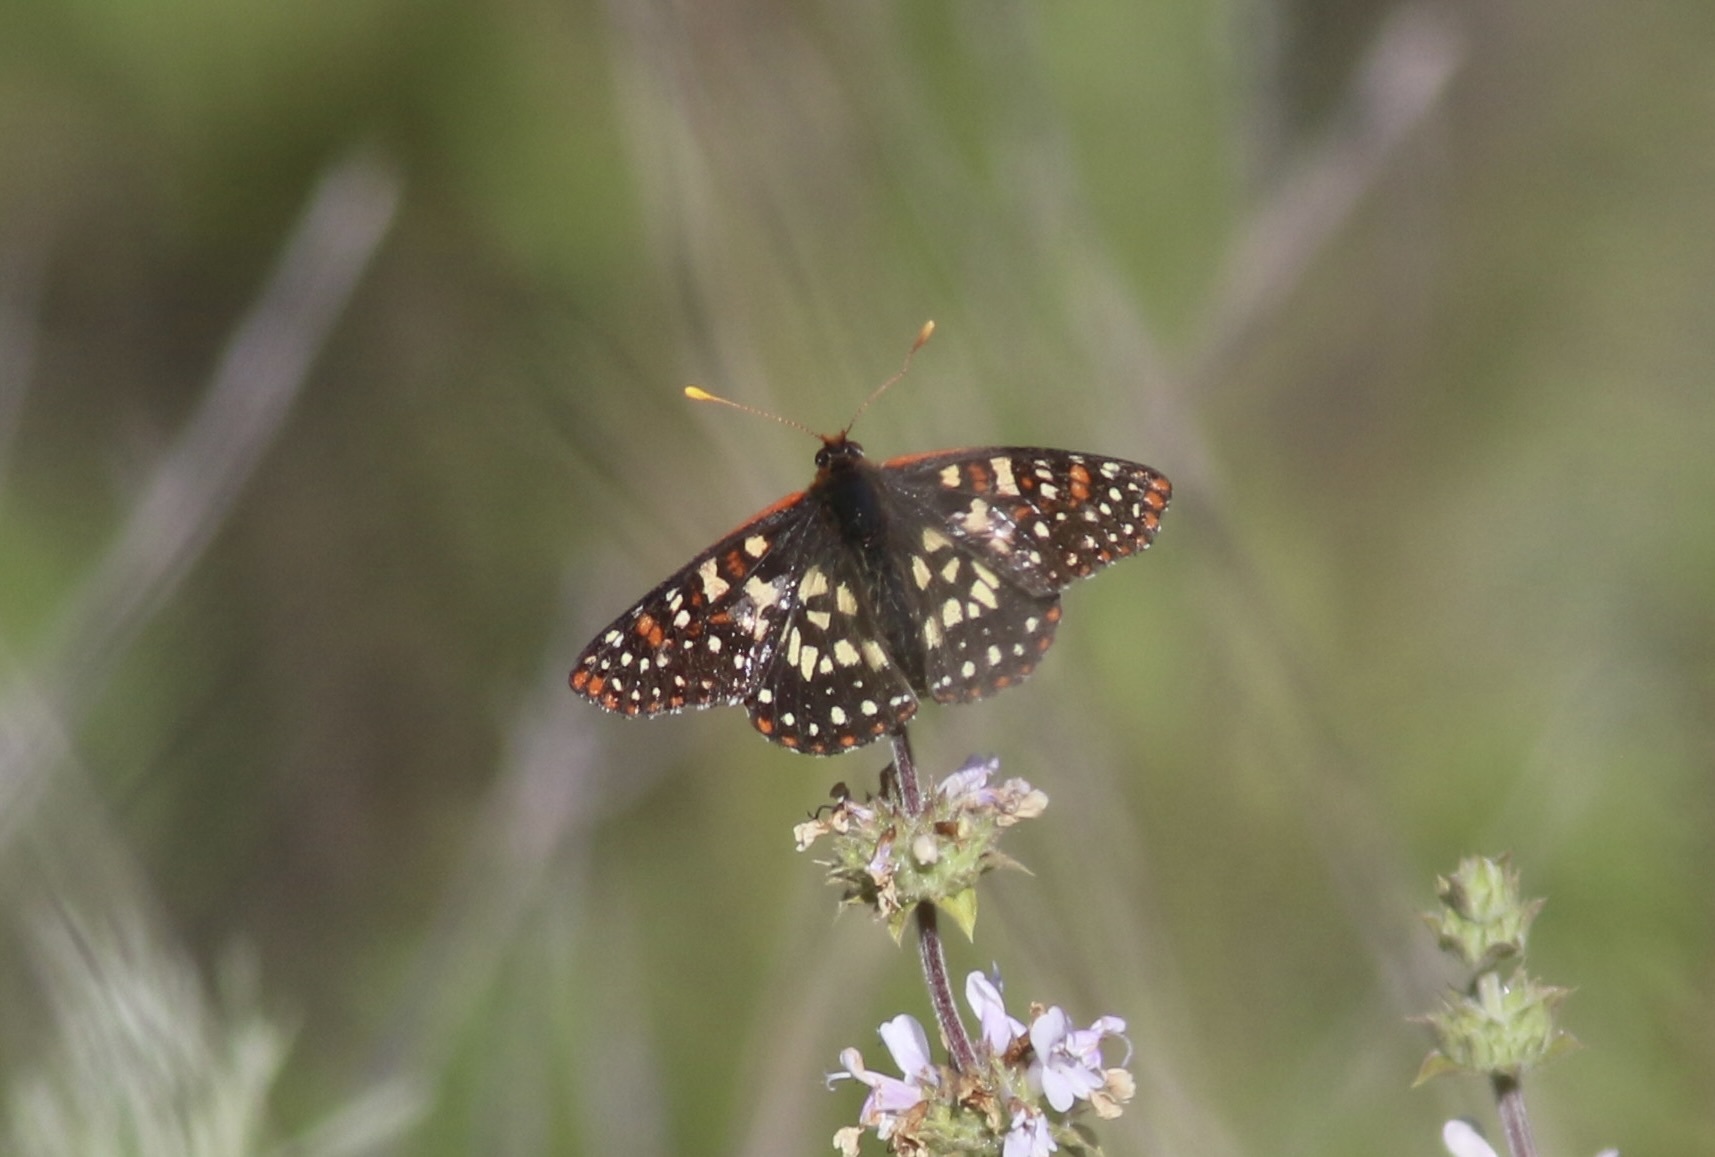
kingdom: Animalia
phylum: Arthropoda
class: Insecta
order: Lepidoptera
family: Nymphalidae
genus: Occidryas
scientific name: Occidryas chalcedona
